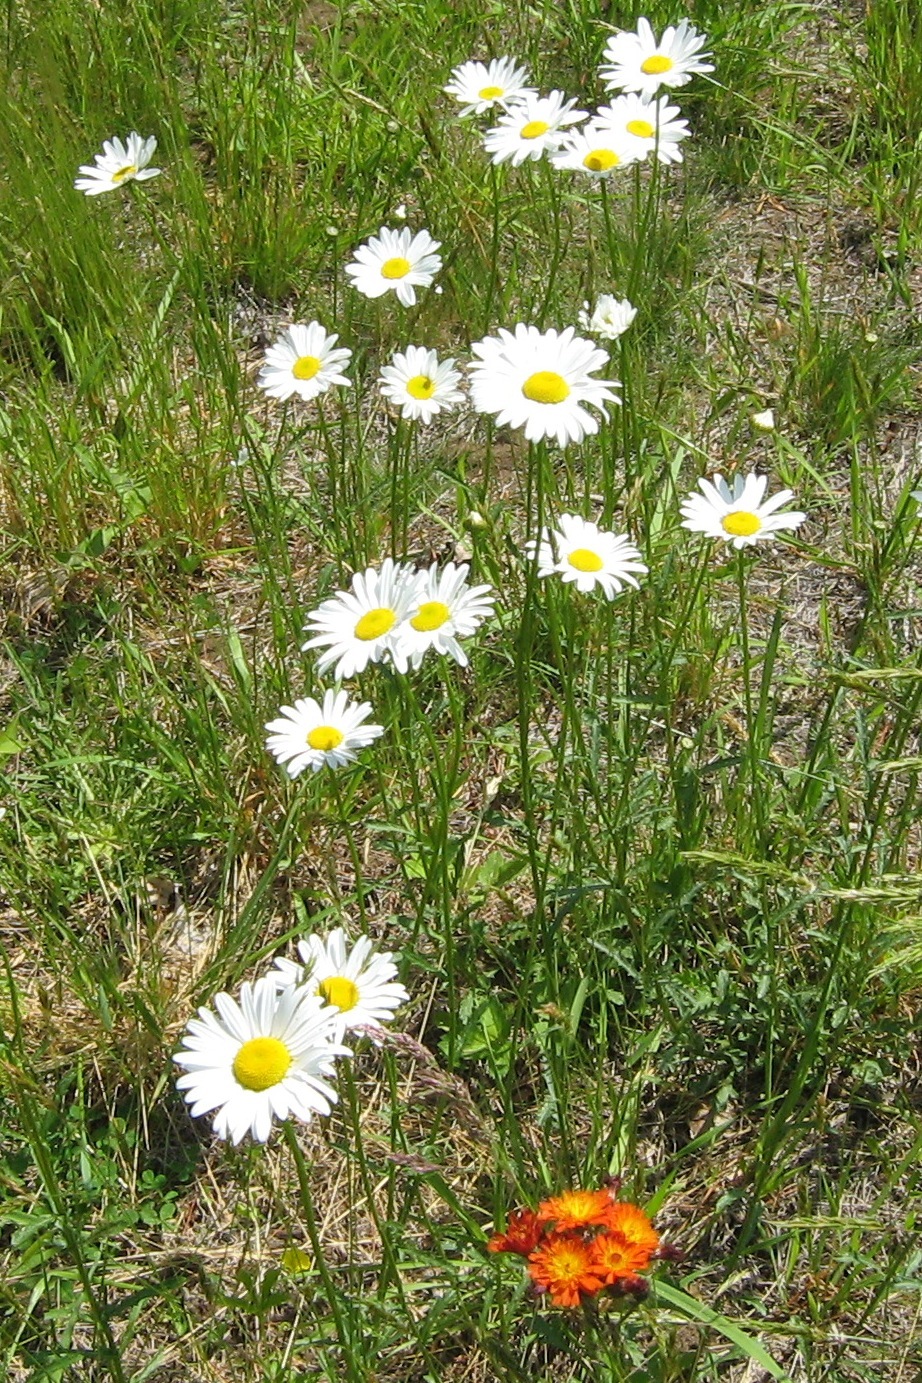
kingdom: Plantae
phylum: Tracheophyta
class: Magnoliopsida
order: Asterales
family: Asteraceae
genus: Pilosella
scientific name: Pilosella aurantiaca
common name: Fox-and-cubs
